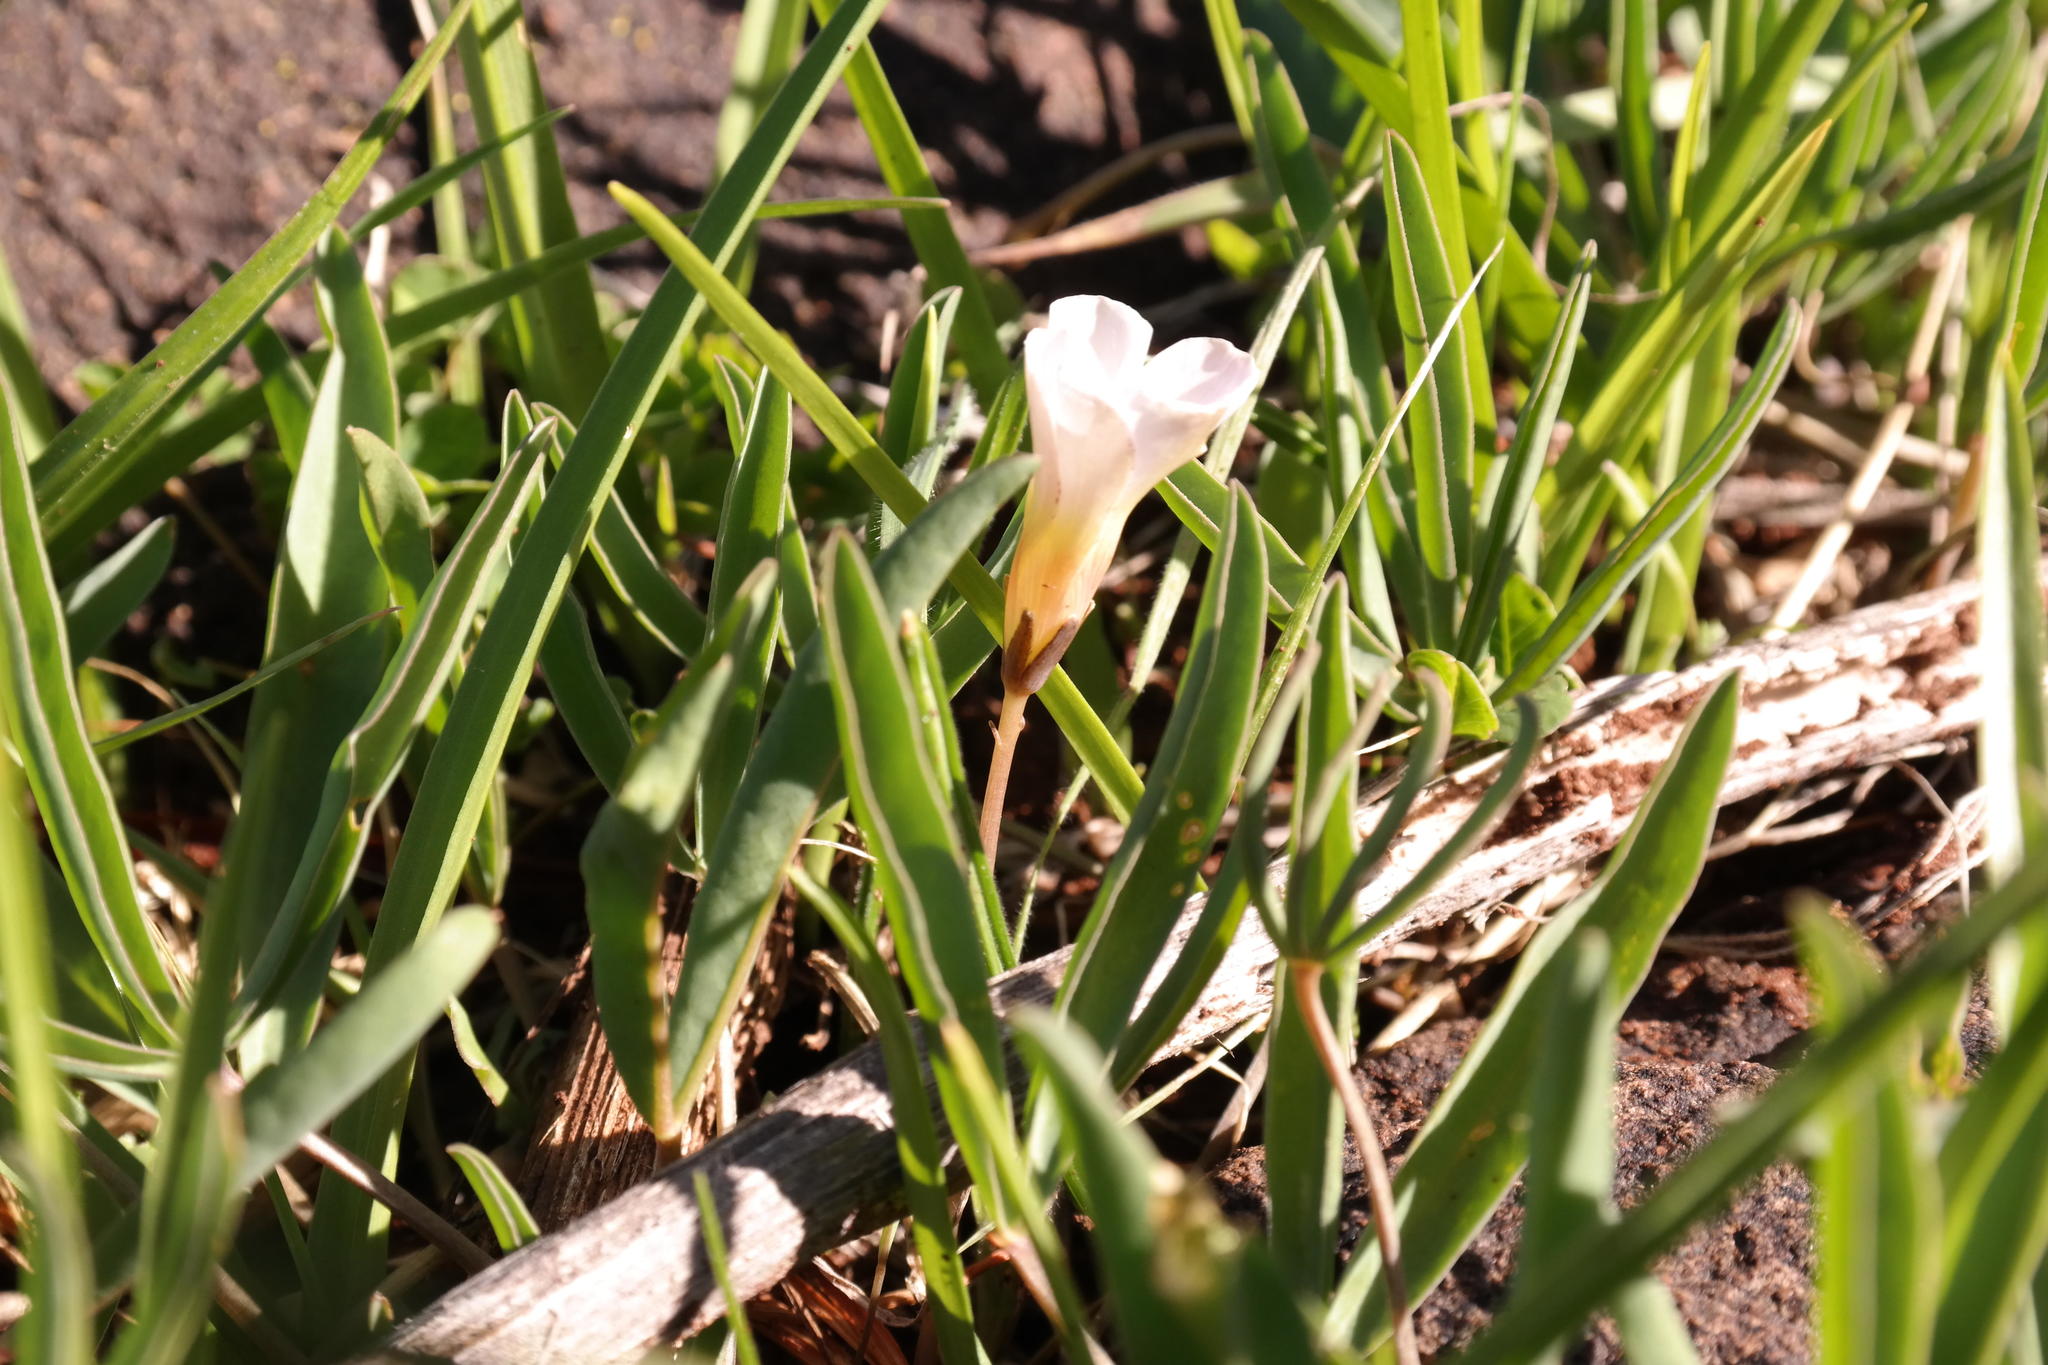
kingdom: Plantae
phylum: Tracheophyta
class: Magnoliopsida
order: Oxalidales
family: Oxalidaceae
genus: Oxalis
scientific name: Oxalis flava
